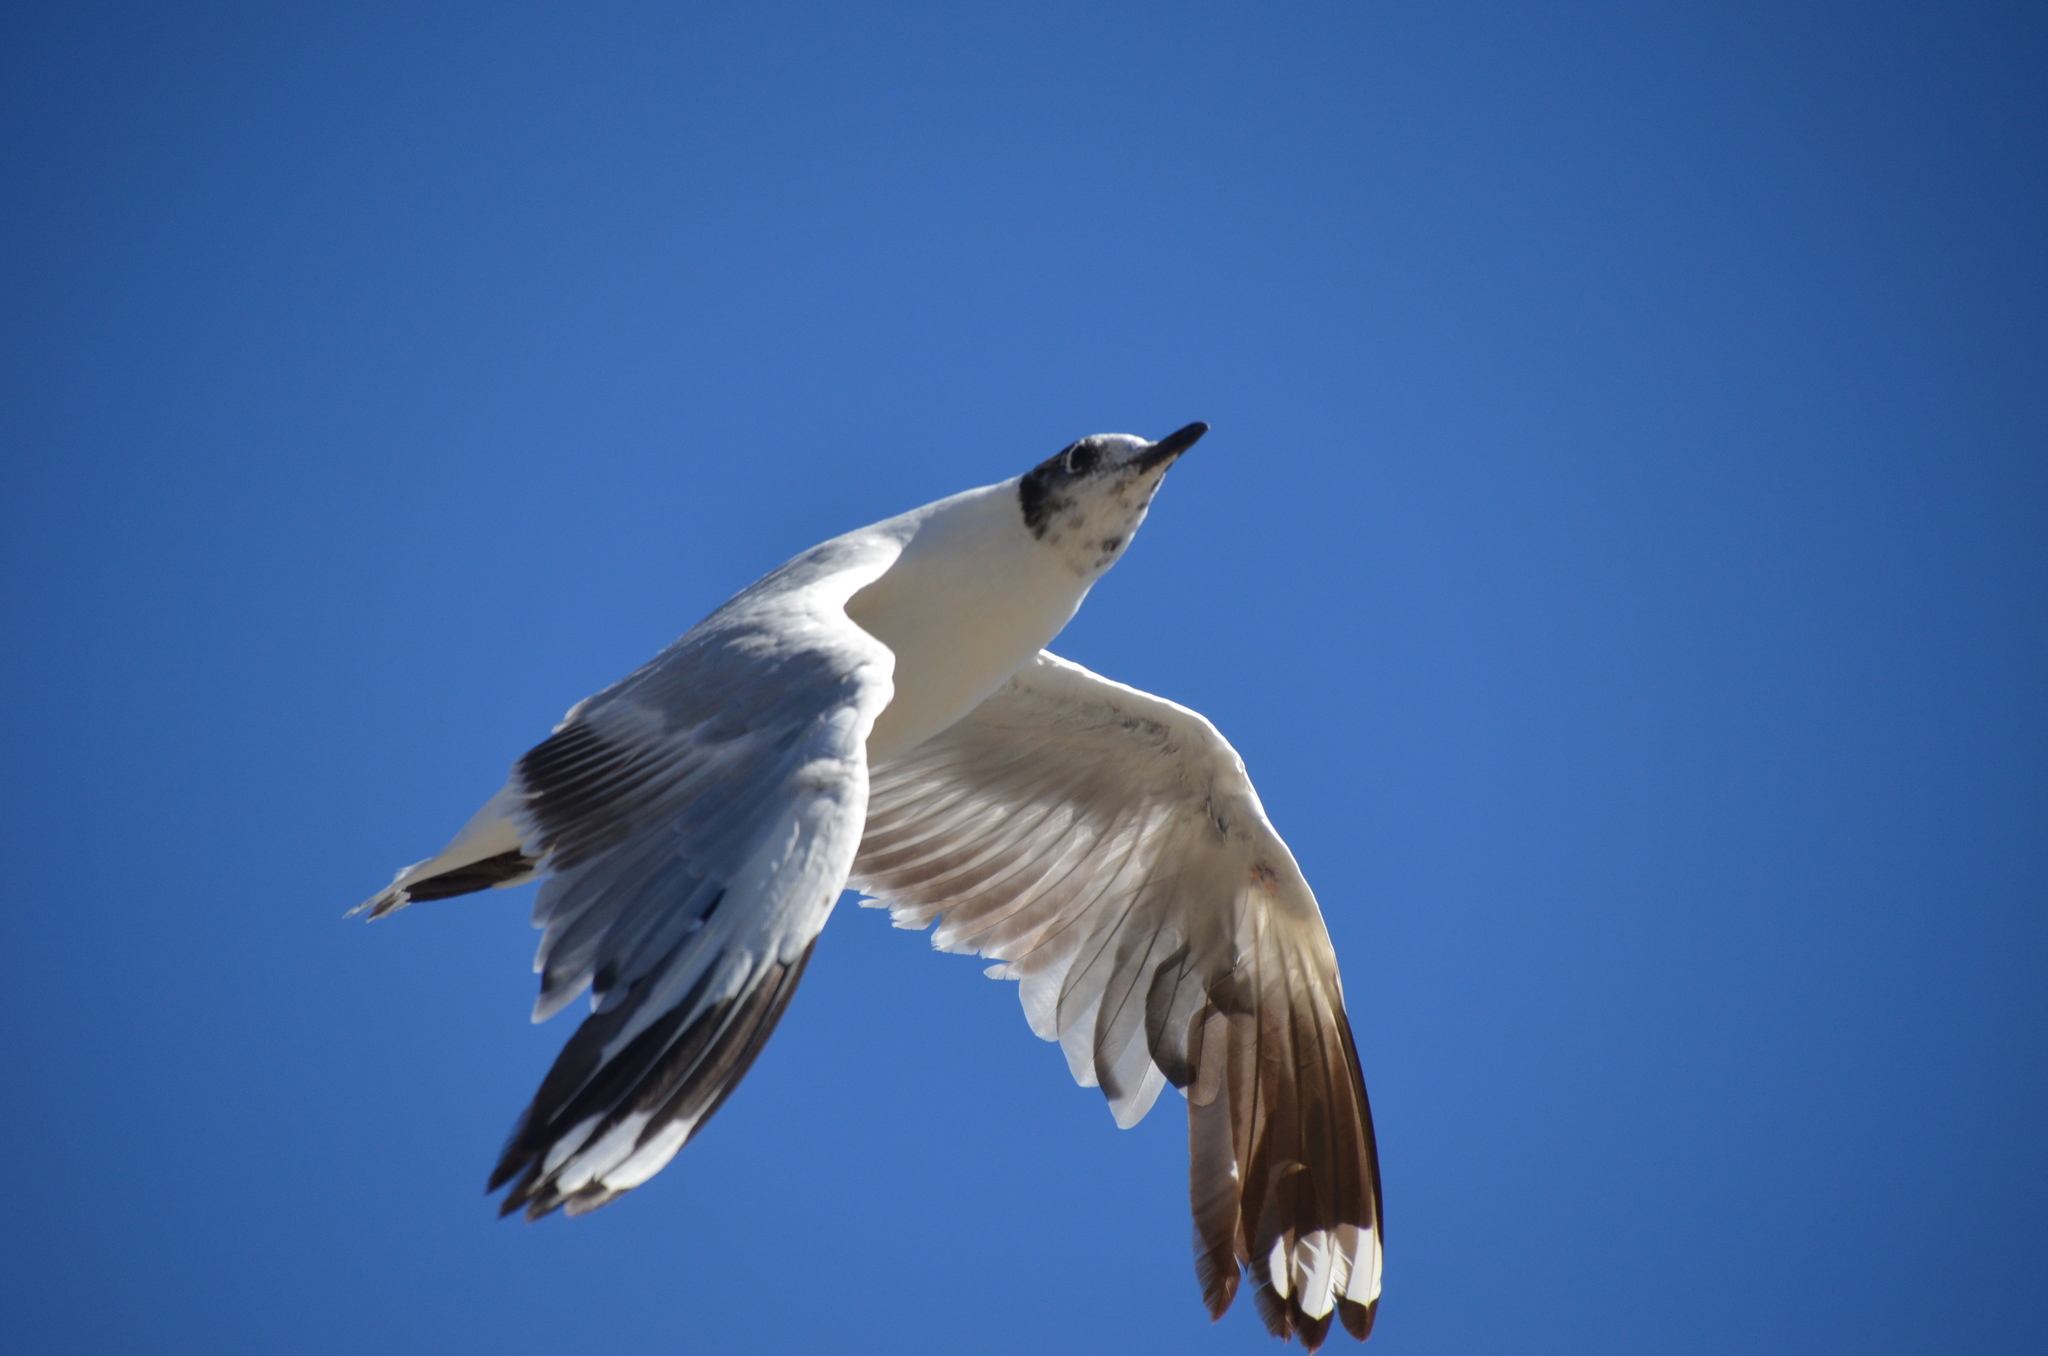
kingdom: Animalia
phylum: Chordata
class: Aves
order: Charadriiformes
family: Laridae
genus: Chroicocephalus
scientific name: Chroicocephalus serranus
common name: Andean gull
